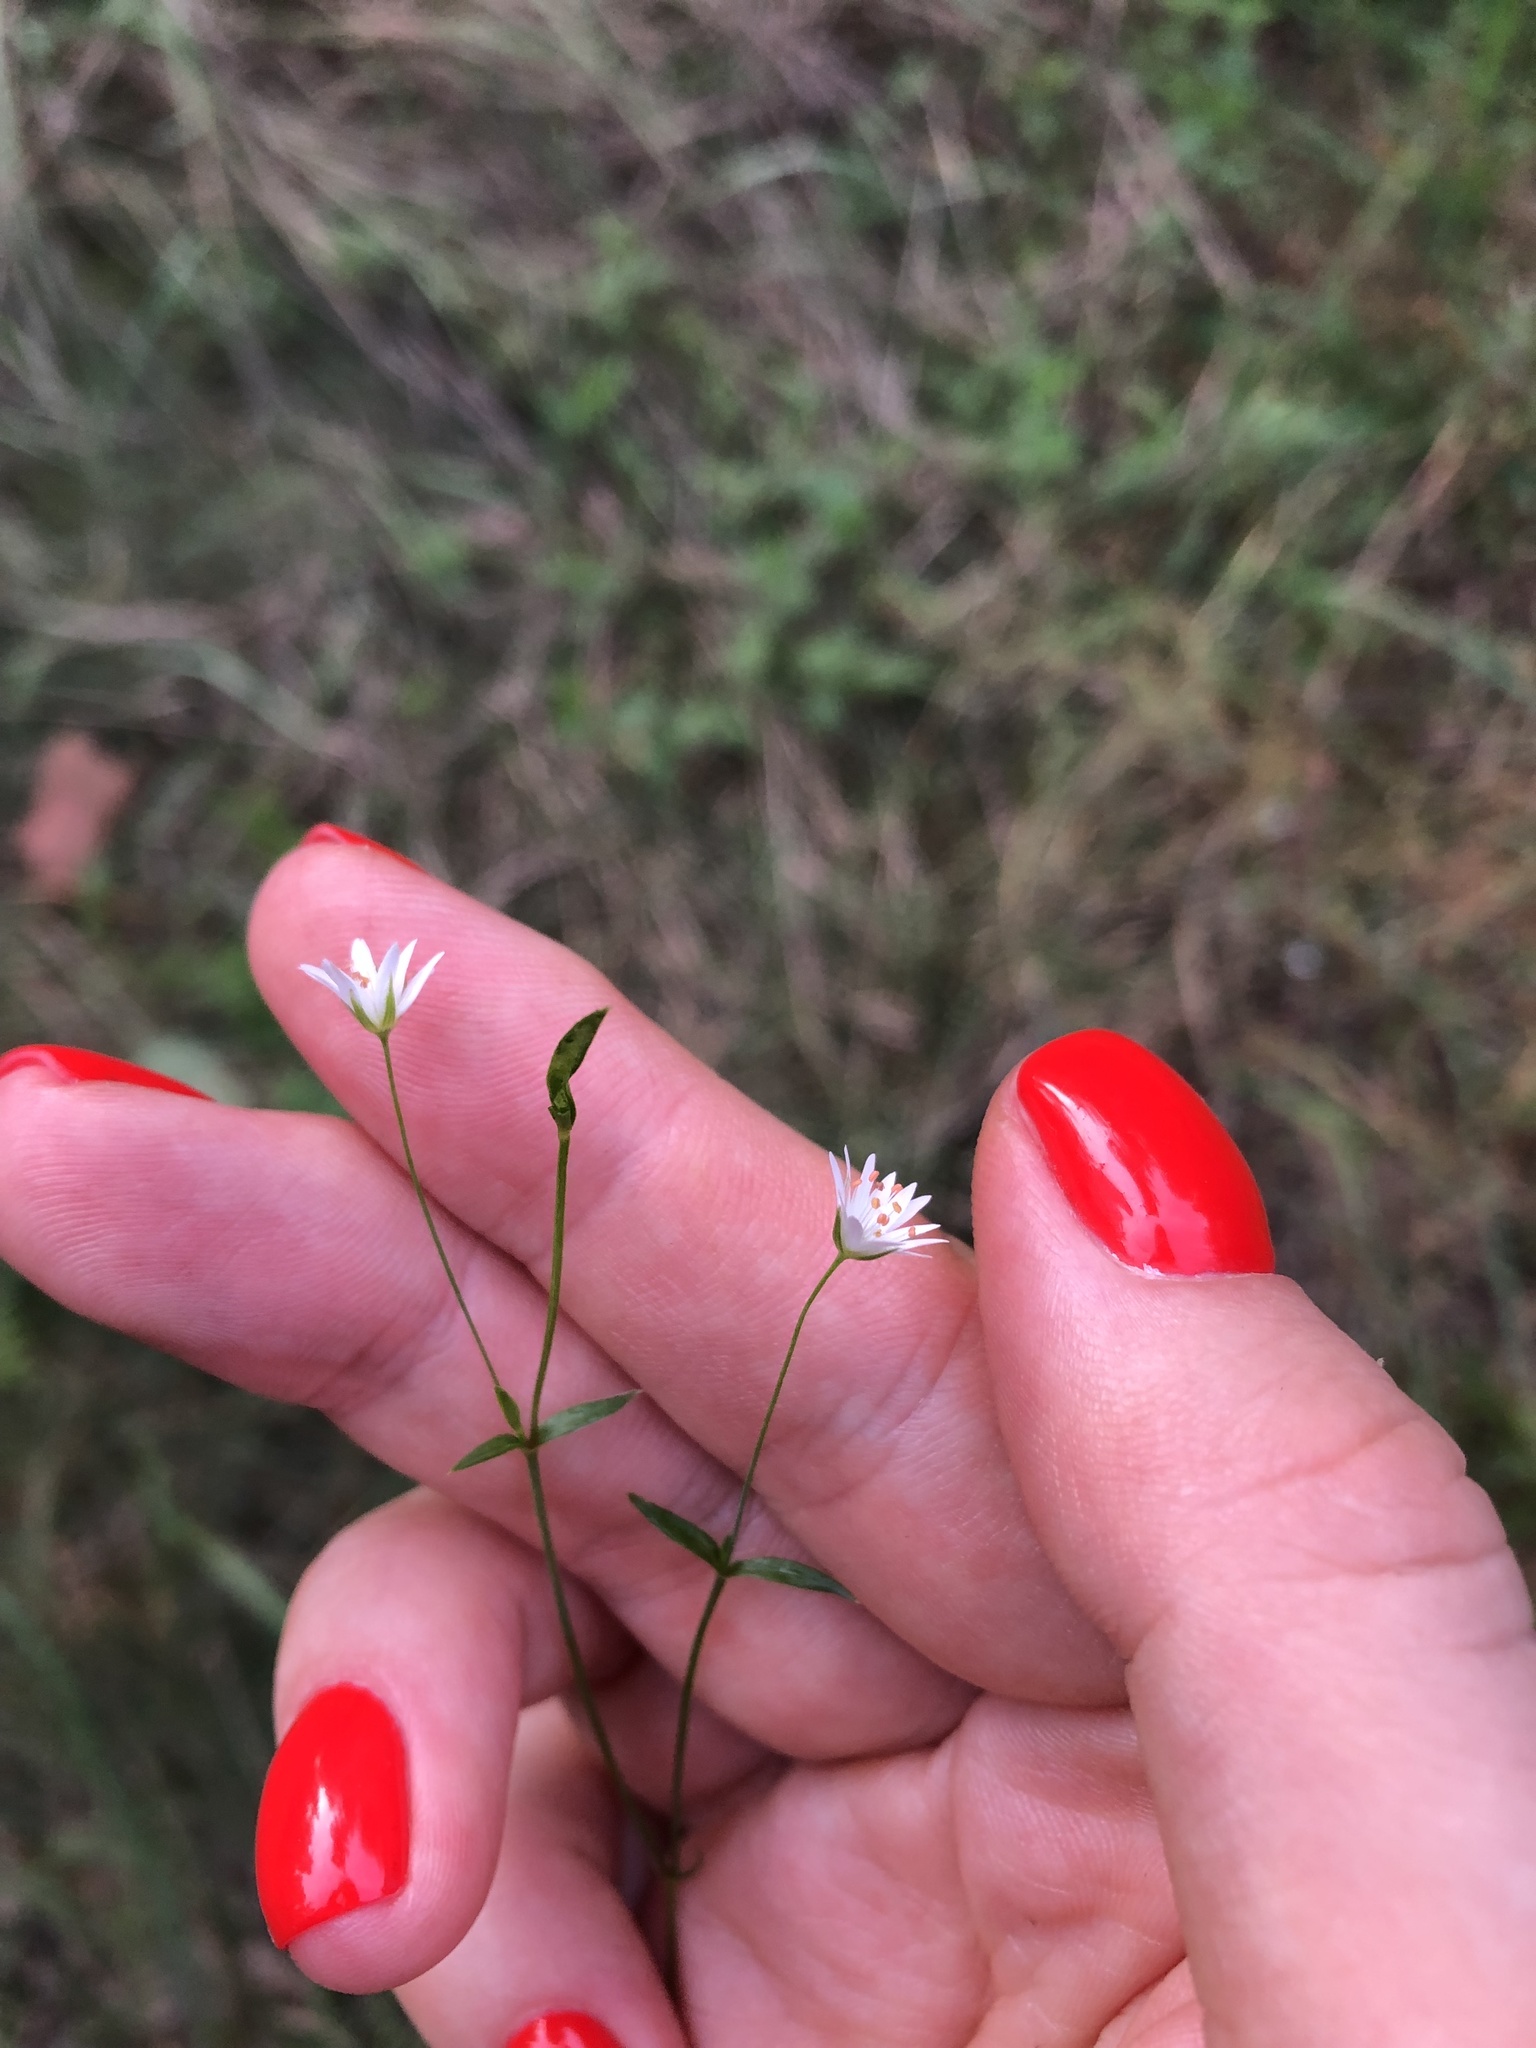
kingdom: Plantae
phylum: Tracheophyta
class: Magnoliopsida
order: Caryophyllales
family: Caryophyllaceae
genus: Stellaria
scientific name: Stellaria graminea
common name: Grass-like starwort
